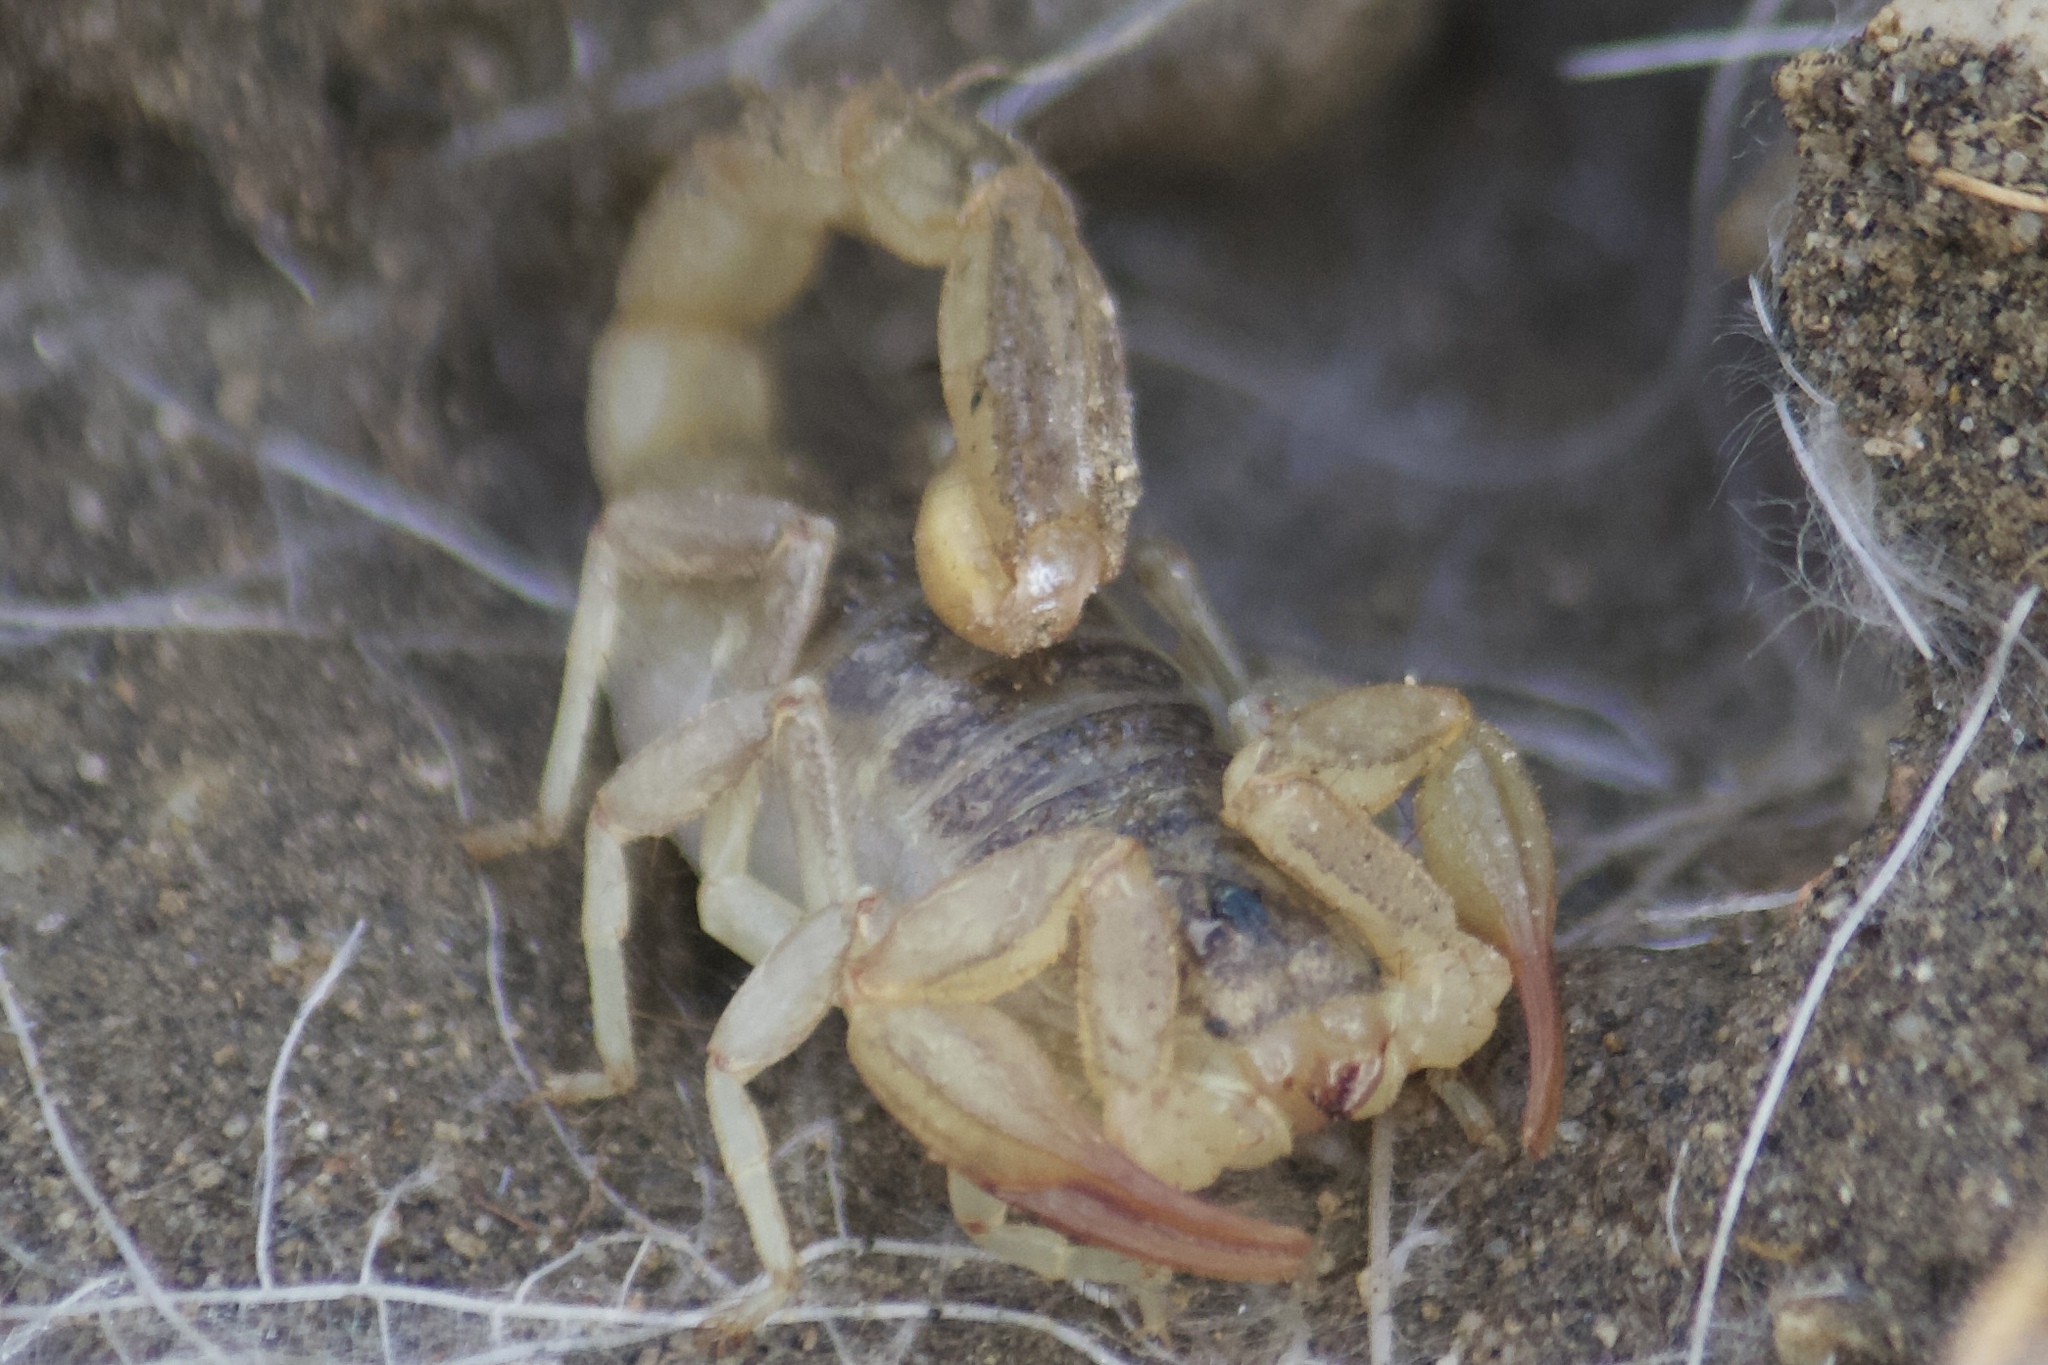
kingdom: Animalia
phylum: Arthropoda
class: Arachnida
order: Scorpiones
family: Vaejovidae
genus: Paruroctonus
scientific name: Paruroctonus silvestrii
